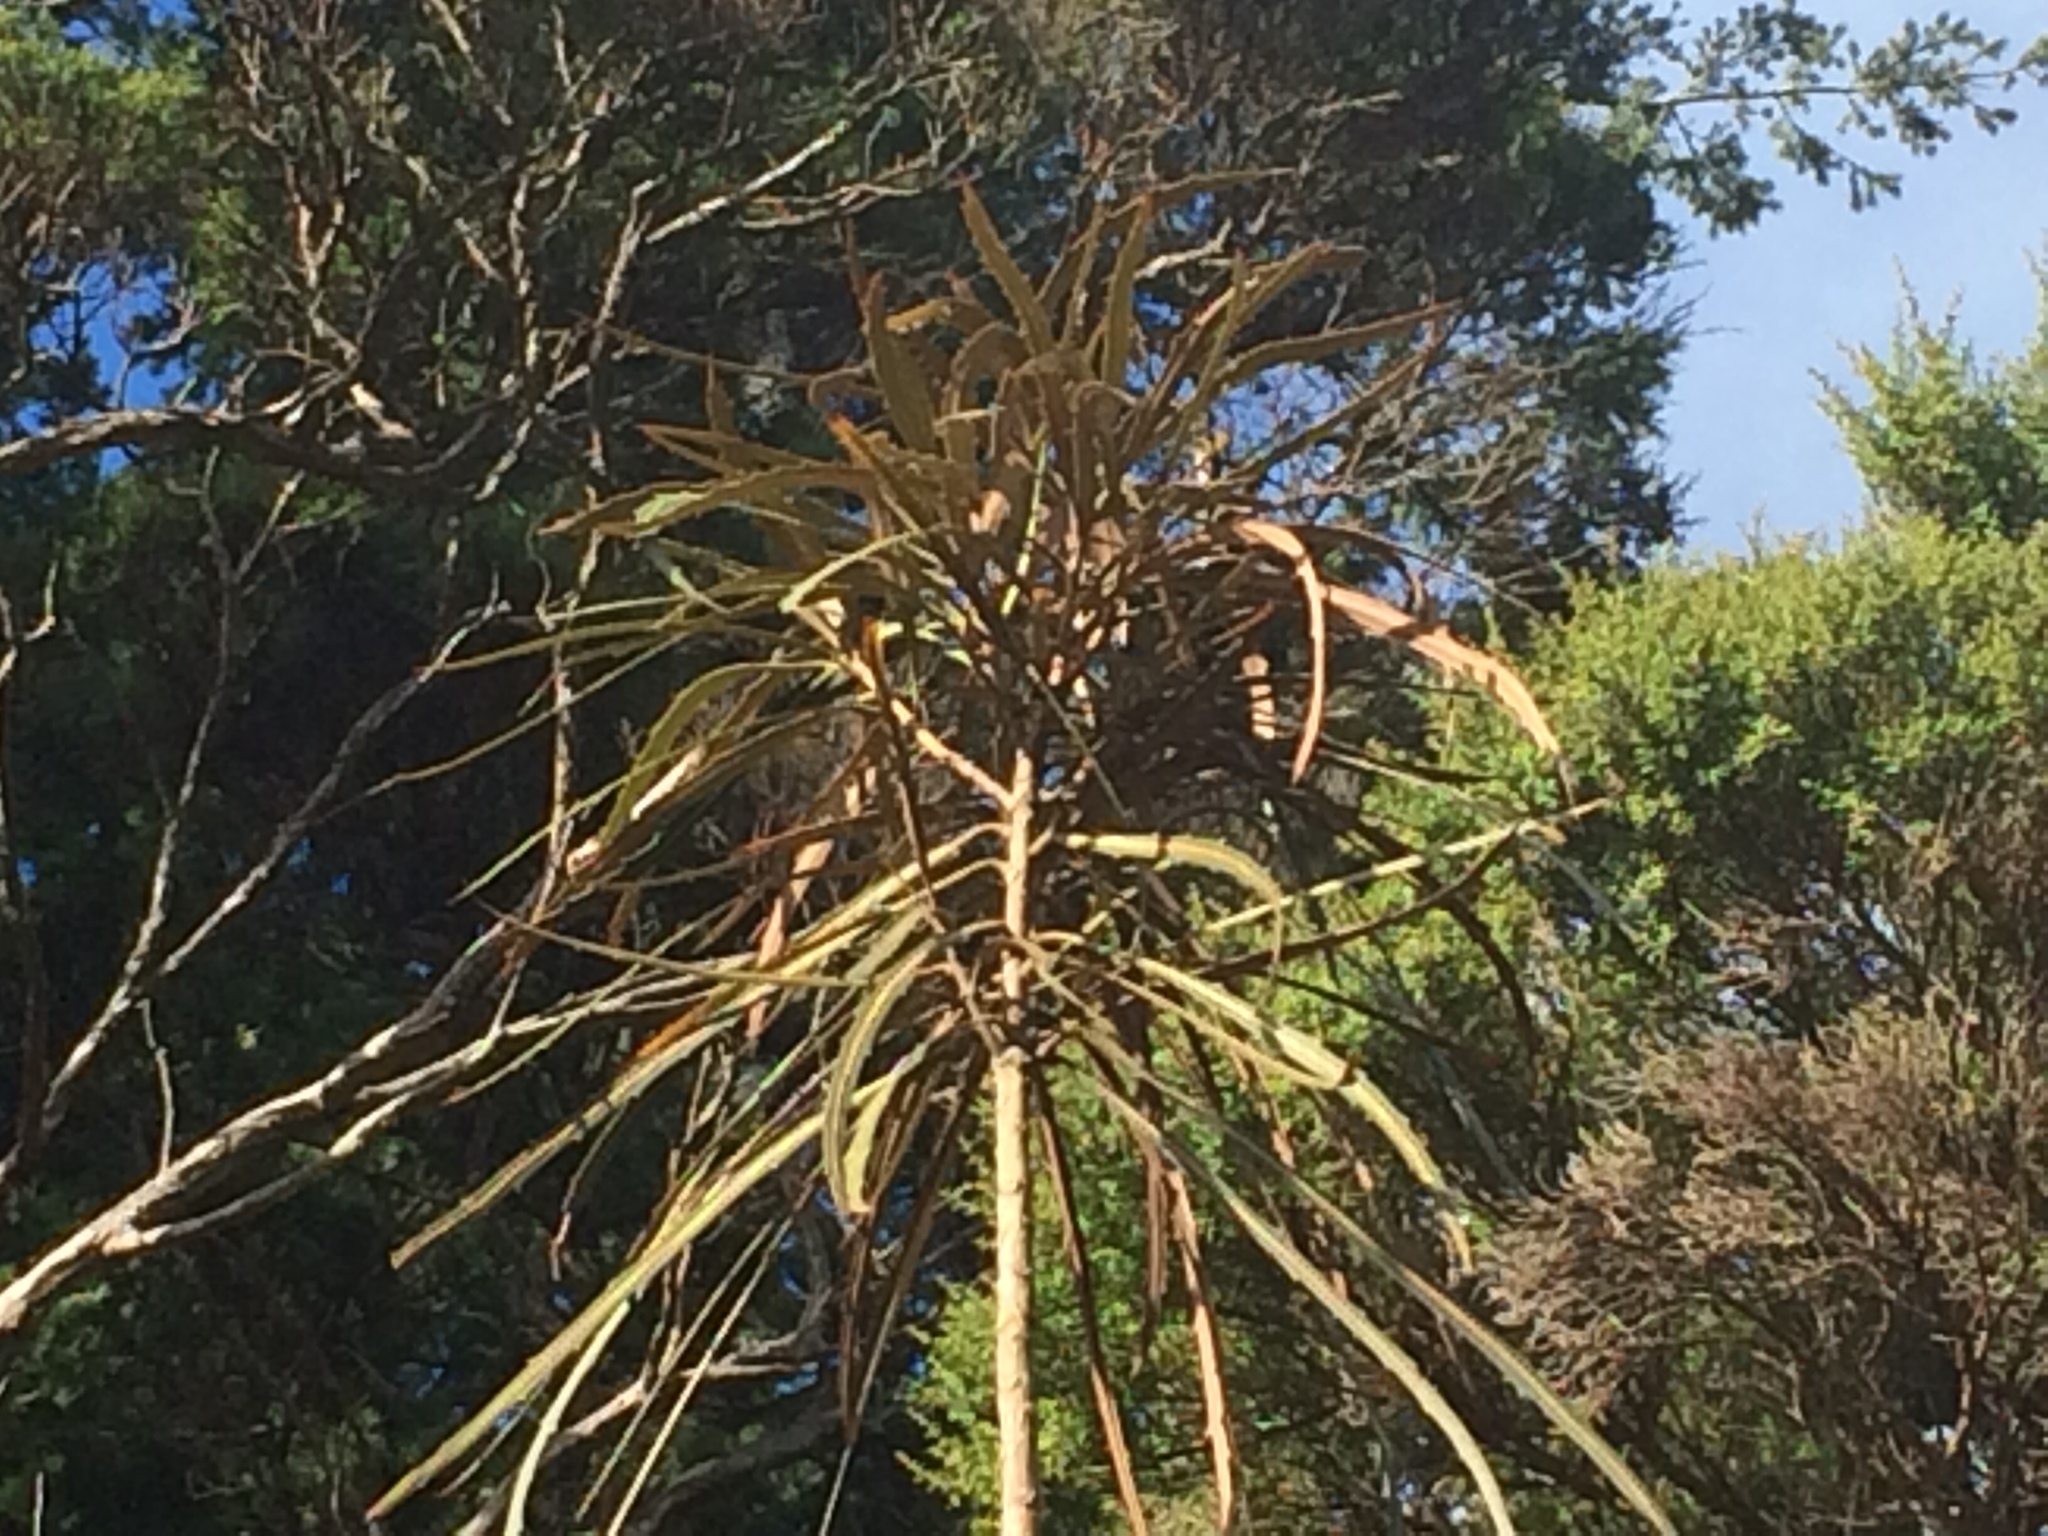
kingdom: Plantae
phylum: Tracheophyta
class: Magnoliopsida
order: Apiales
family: Araliaceae
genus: Pseudopanax
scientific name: Pseudopanax crassifolius
